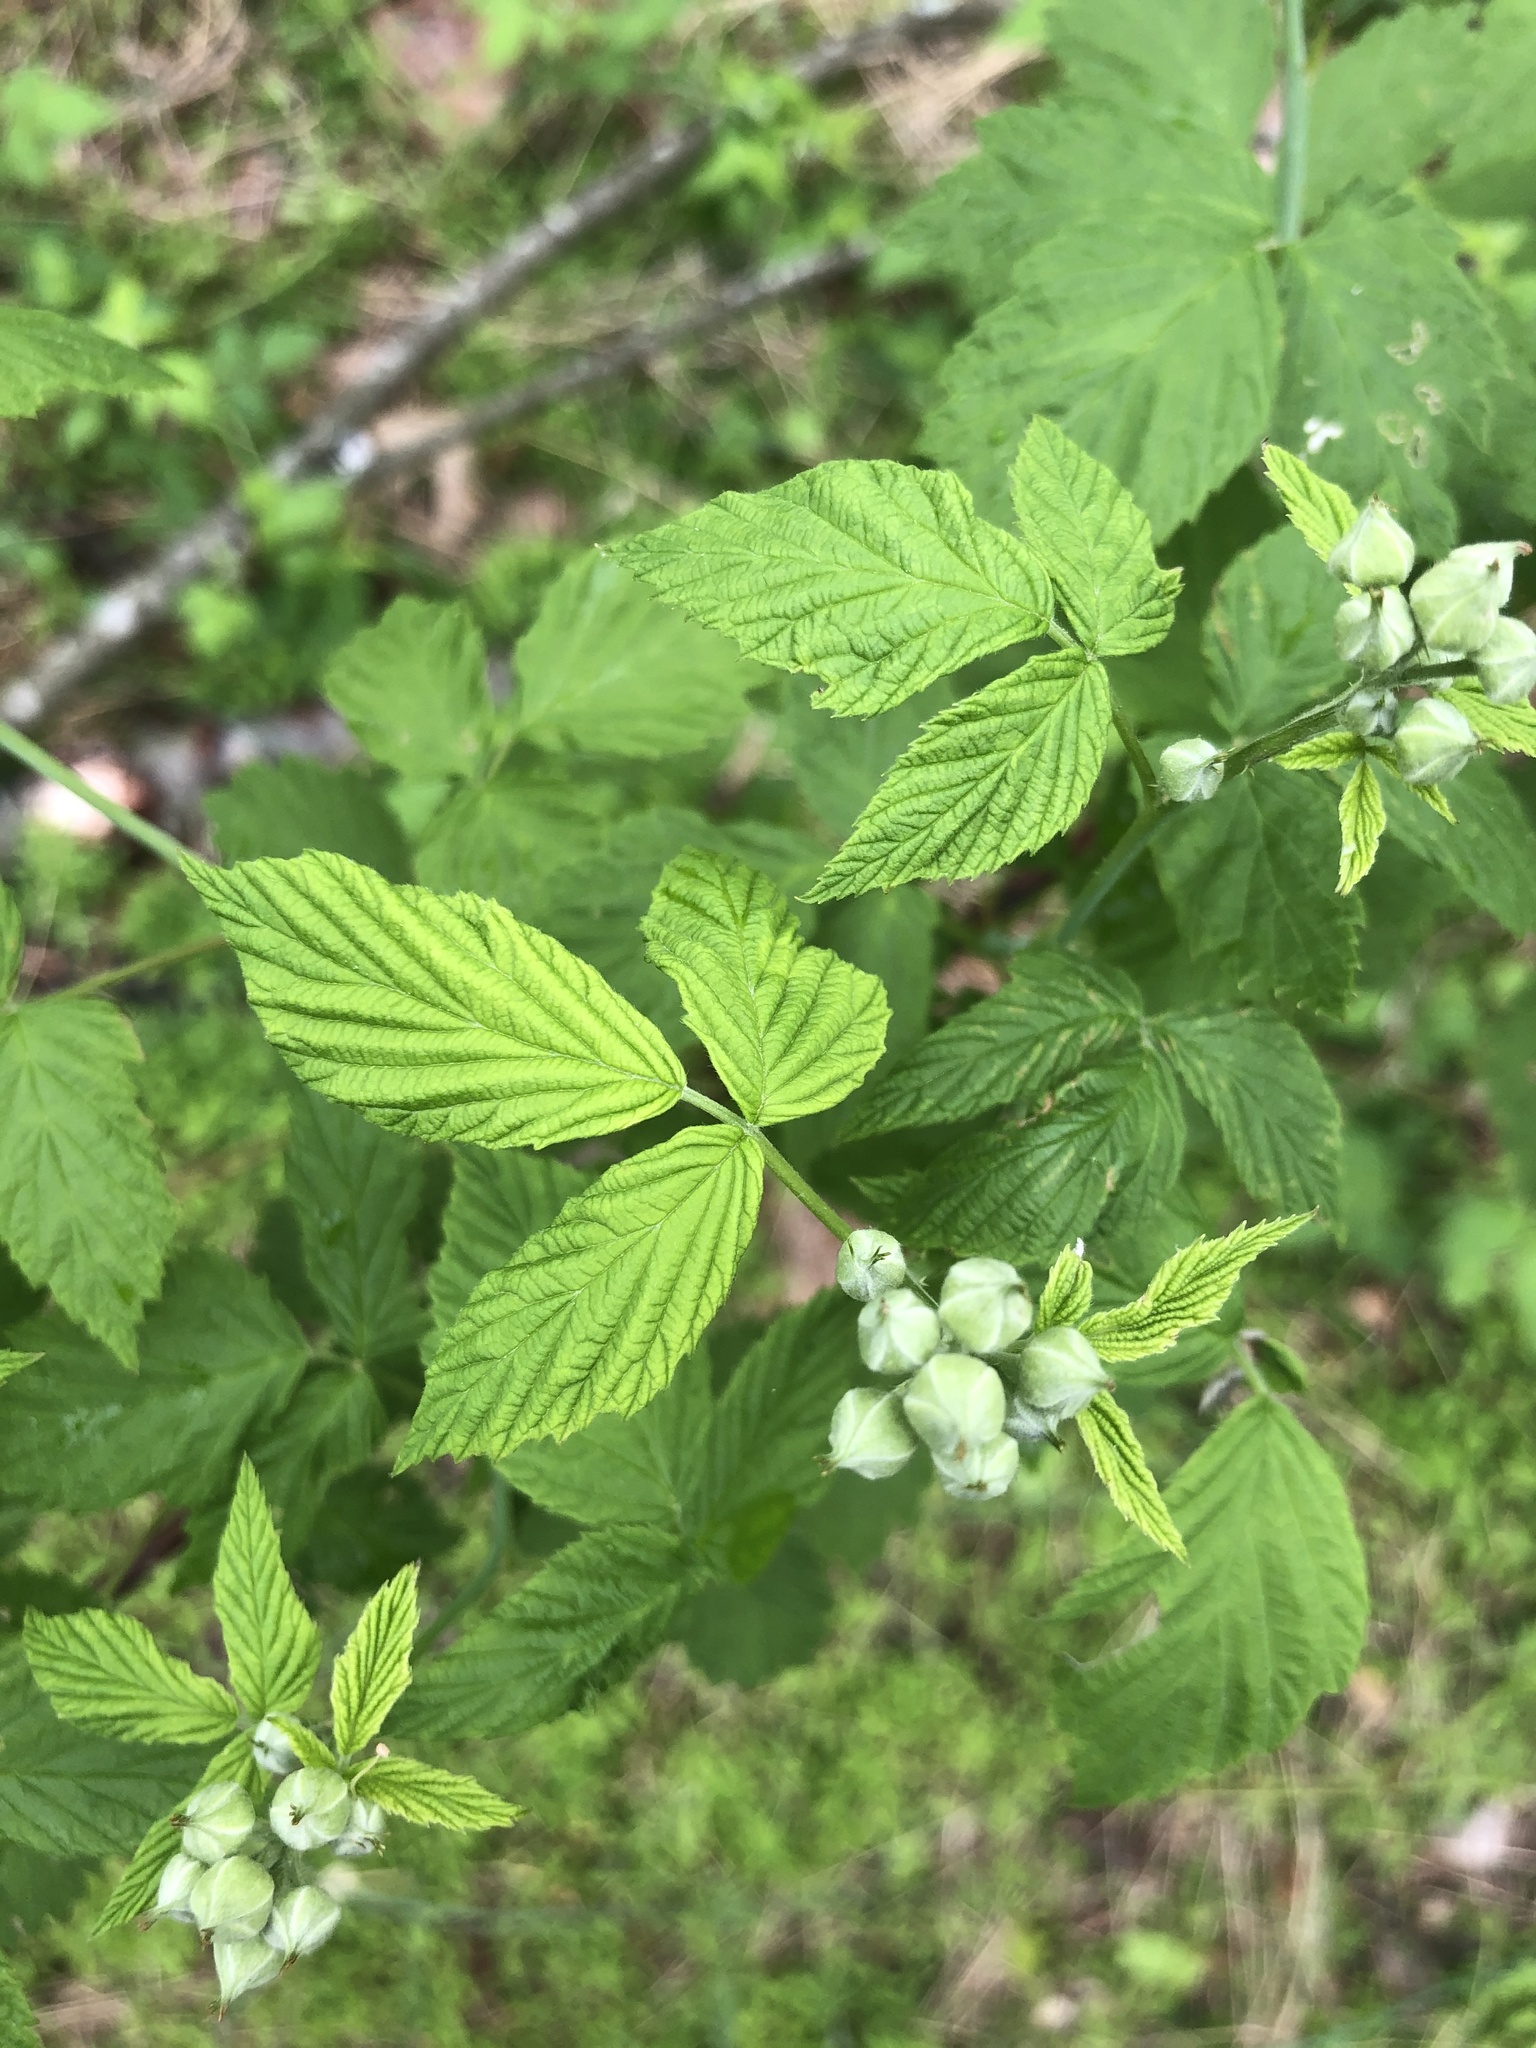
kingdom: Plantae
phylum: Tracheophyta
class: Magnoliopsida
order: Rosales
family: Rosaceae
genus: Rubus
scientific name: Rubus occidentalis
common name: Black raspberry
